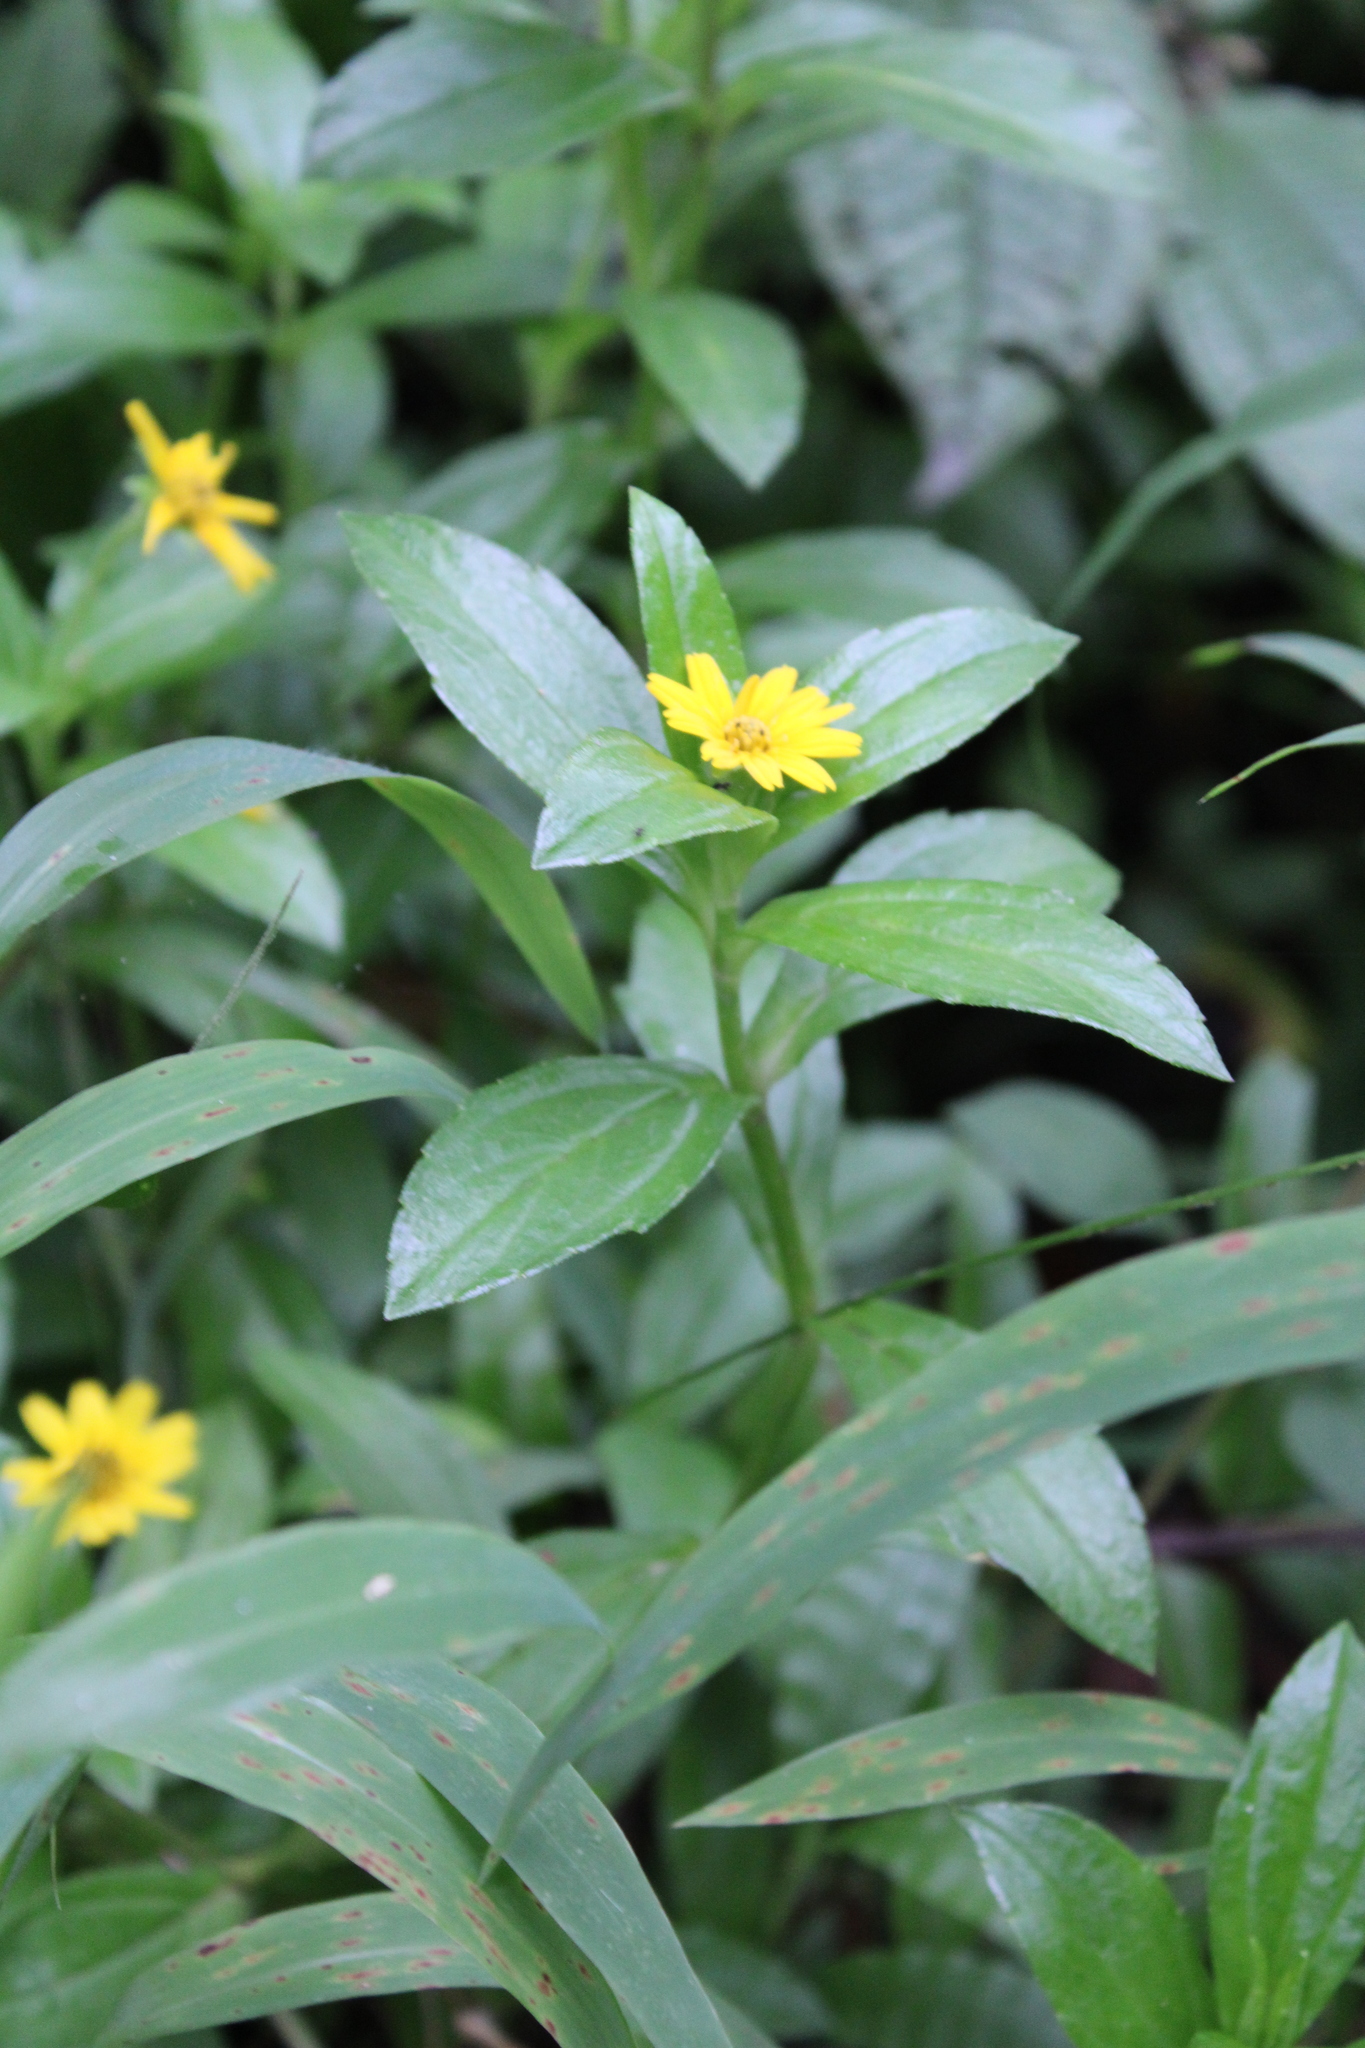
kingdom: Plantae
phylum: Tracheophyta
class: Magnoliopsida
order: Asterales
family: Asteraceae
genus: Sphagneticola
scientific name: Sphagneticola trilobata
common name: Bay biscayne creeping-oxeye
